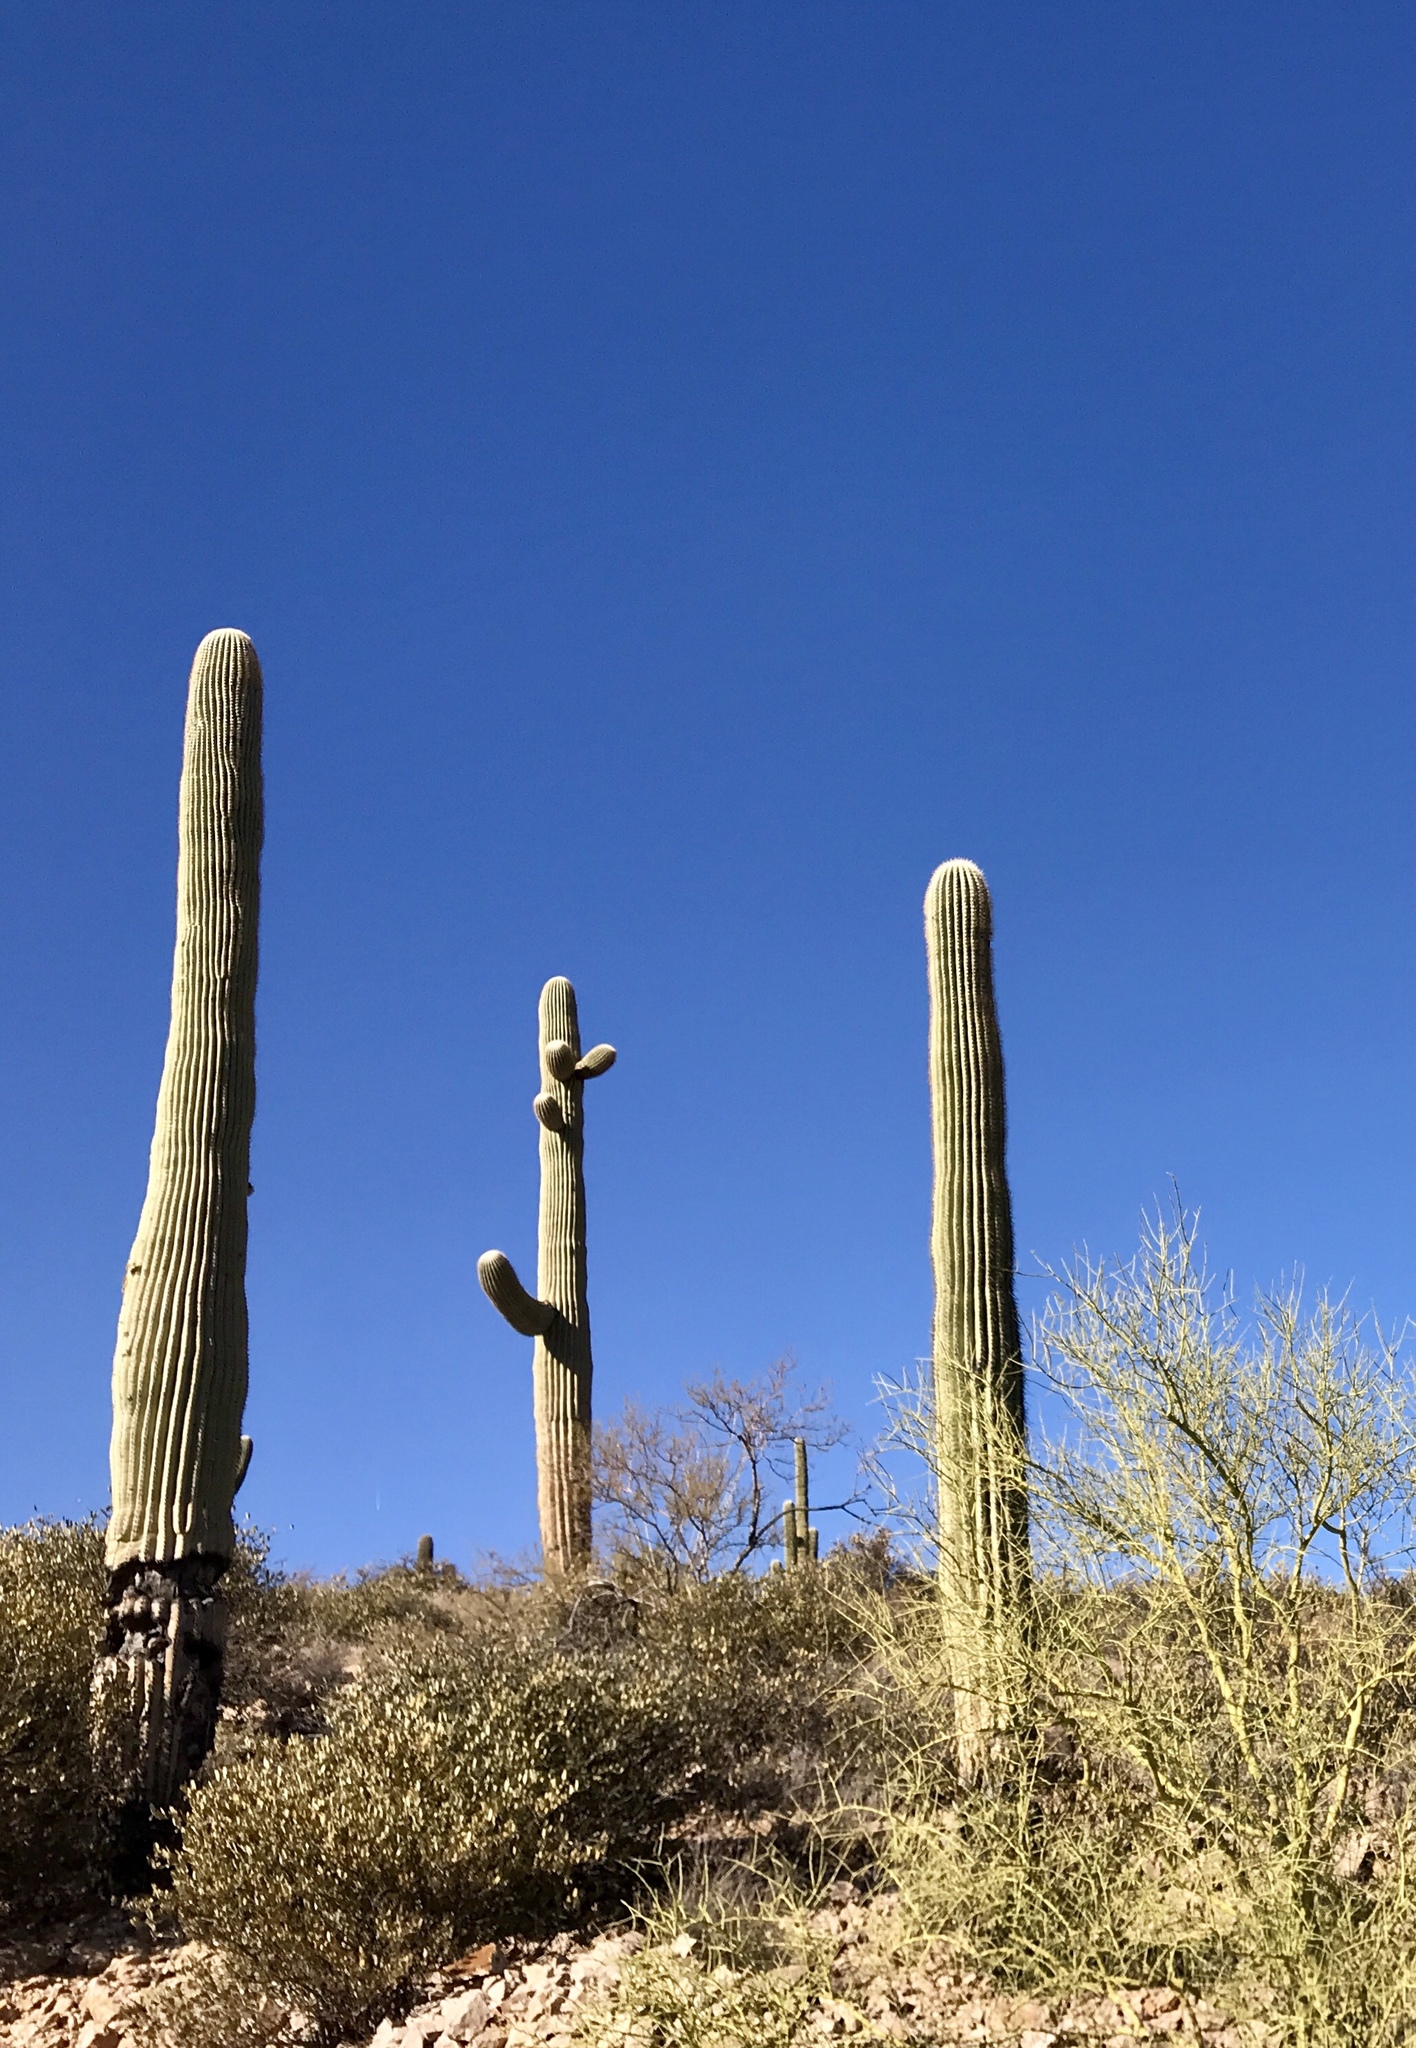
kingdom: Plantae
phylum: Tracheophyta
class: Magnoliopsida
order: Caryophyllales
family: Cactaceae
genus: Carnegiea
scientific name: Carnegiea gigantea
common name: Saguaro
